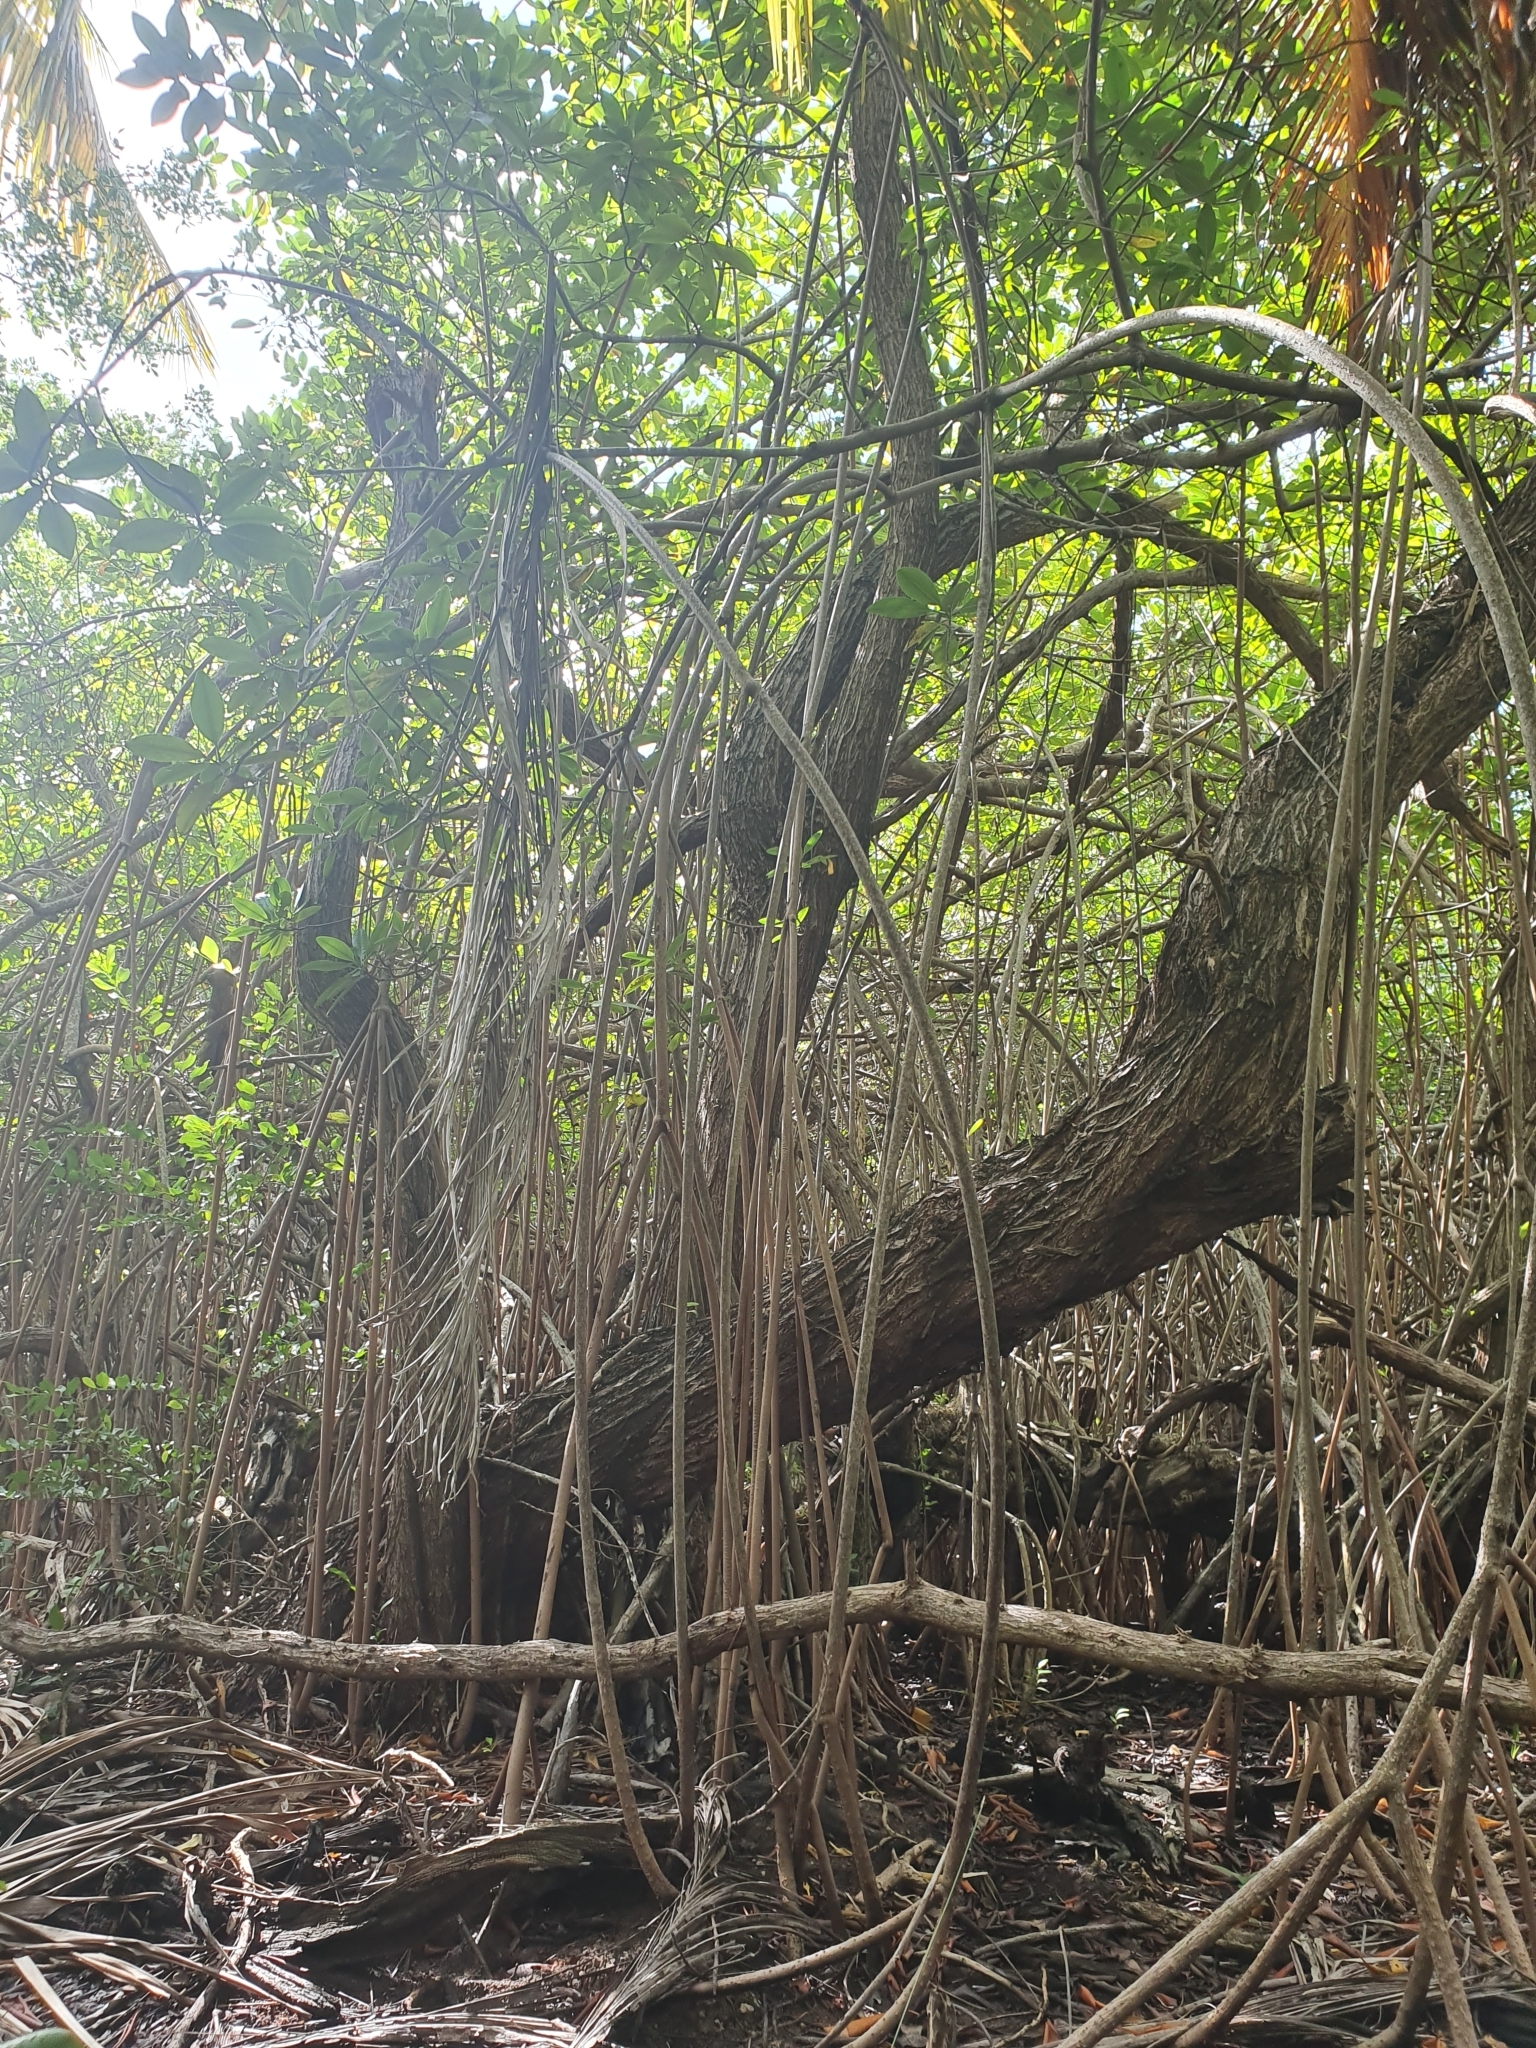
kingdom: Plantae
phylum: Tracheophyta
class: Magnoliopsida
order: Malpighiales
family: Rhizophoraceae
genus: Rhizophora
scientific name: Rhizophora mangle
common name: Red mangrove
